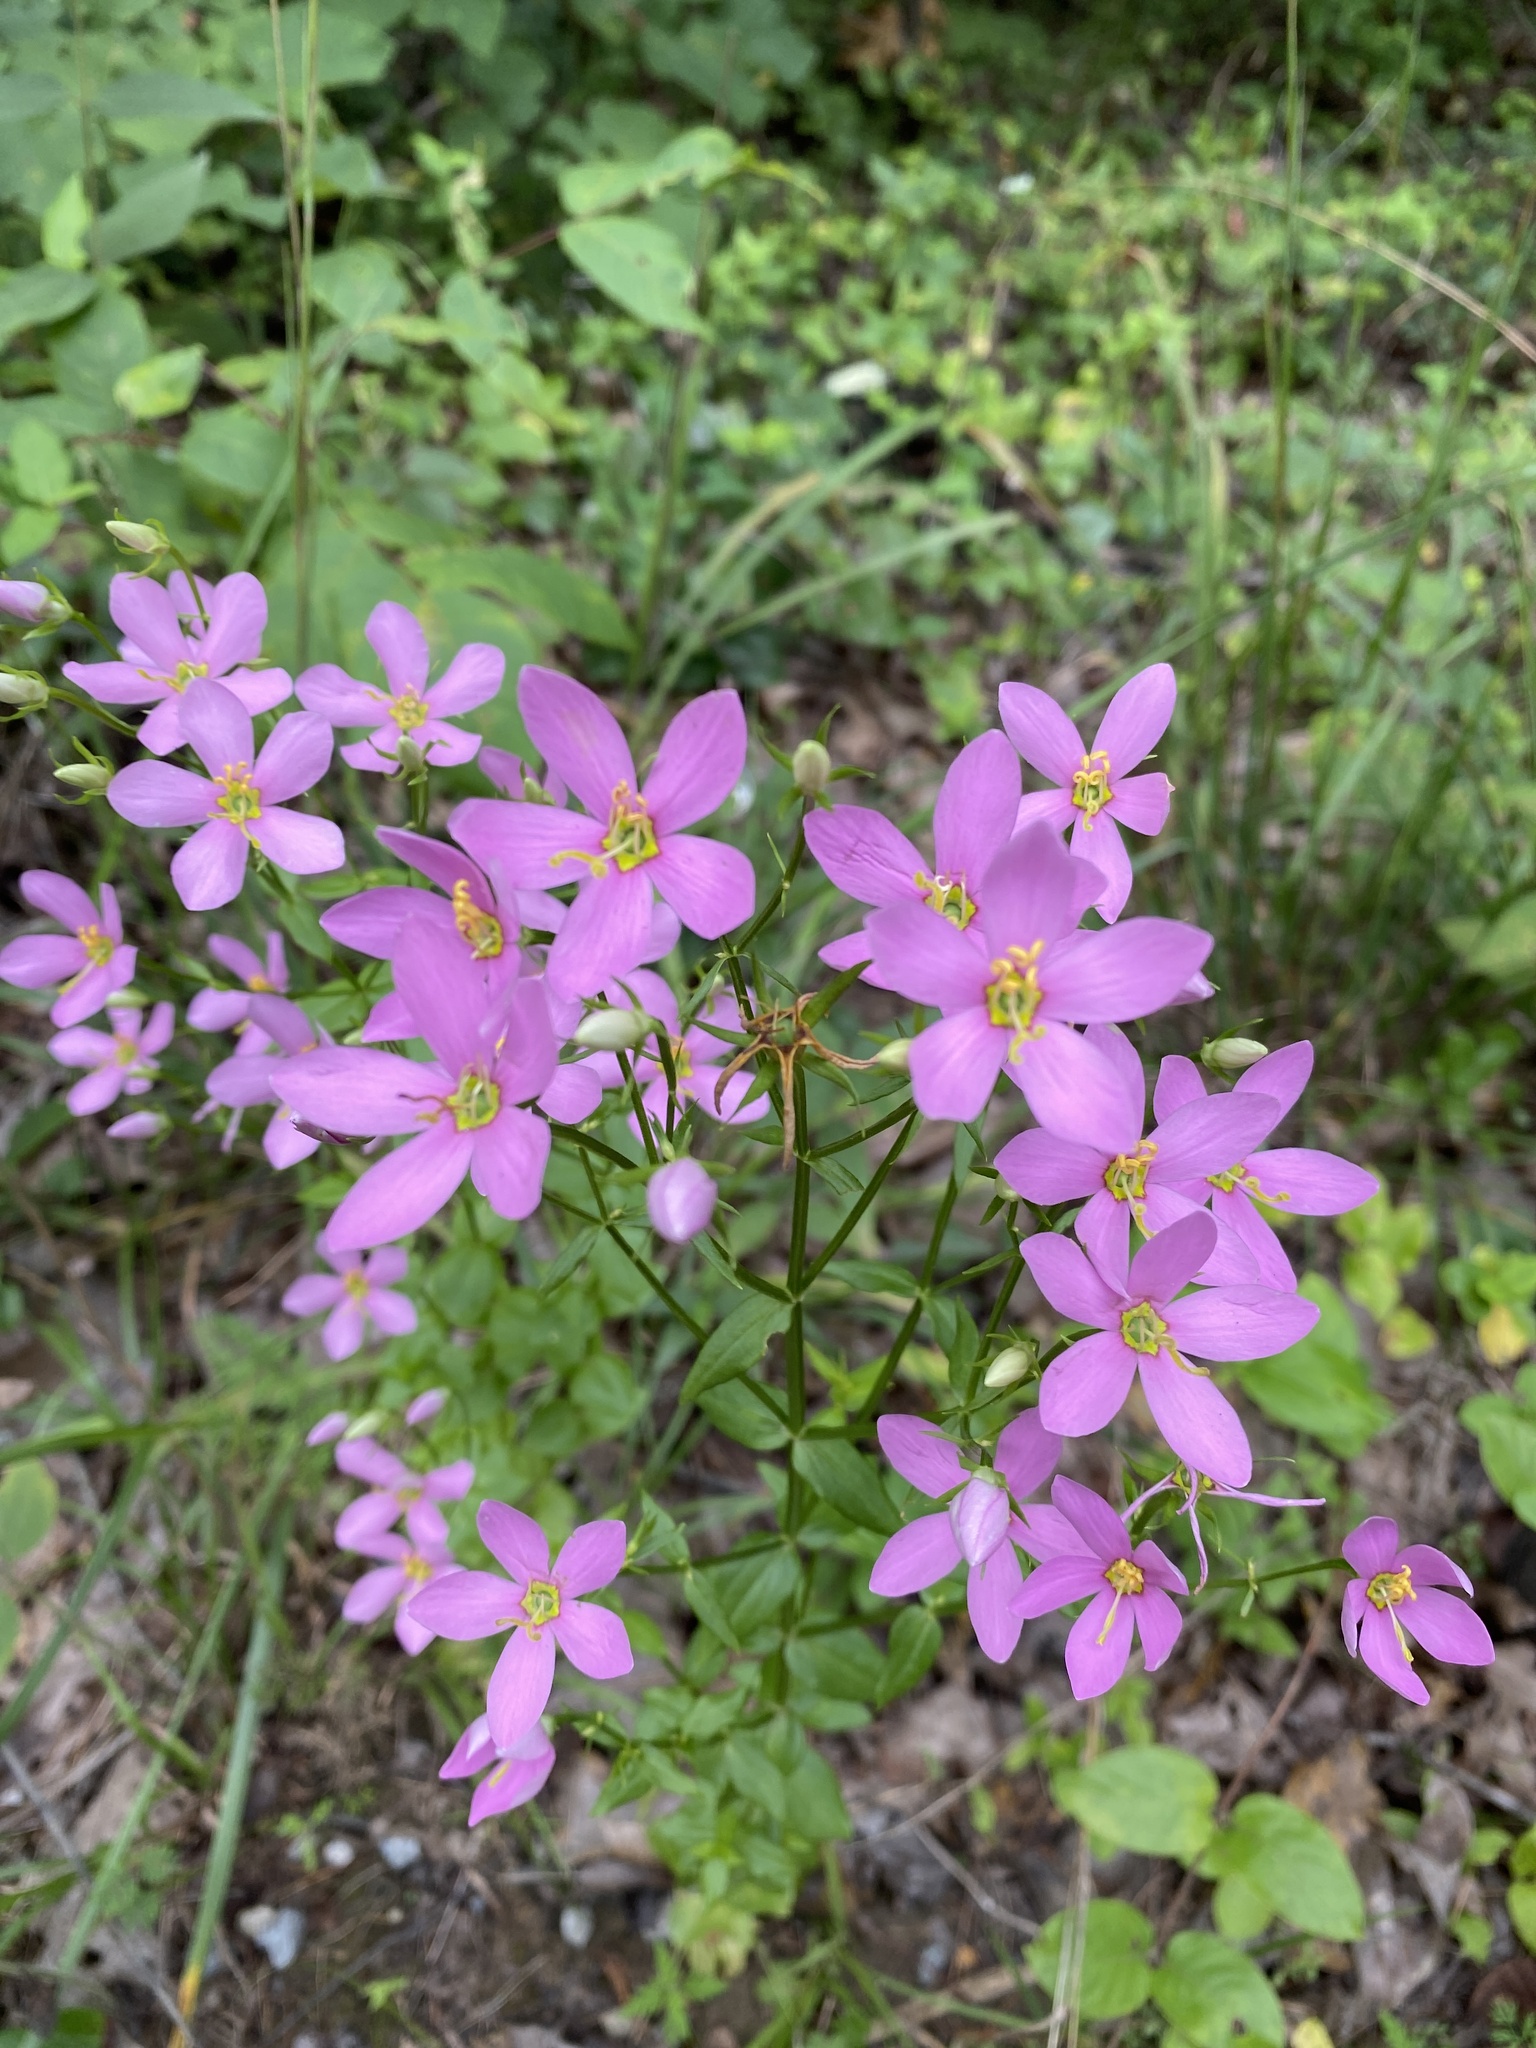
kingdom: Plantae
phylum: Tracheophyta
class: Magnoliopsida
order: Gentianales
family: Gentianaceae
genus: Sabatia
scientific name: Sabatia angularis
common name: Rose-pink
